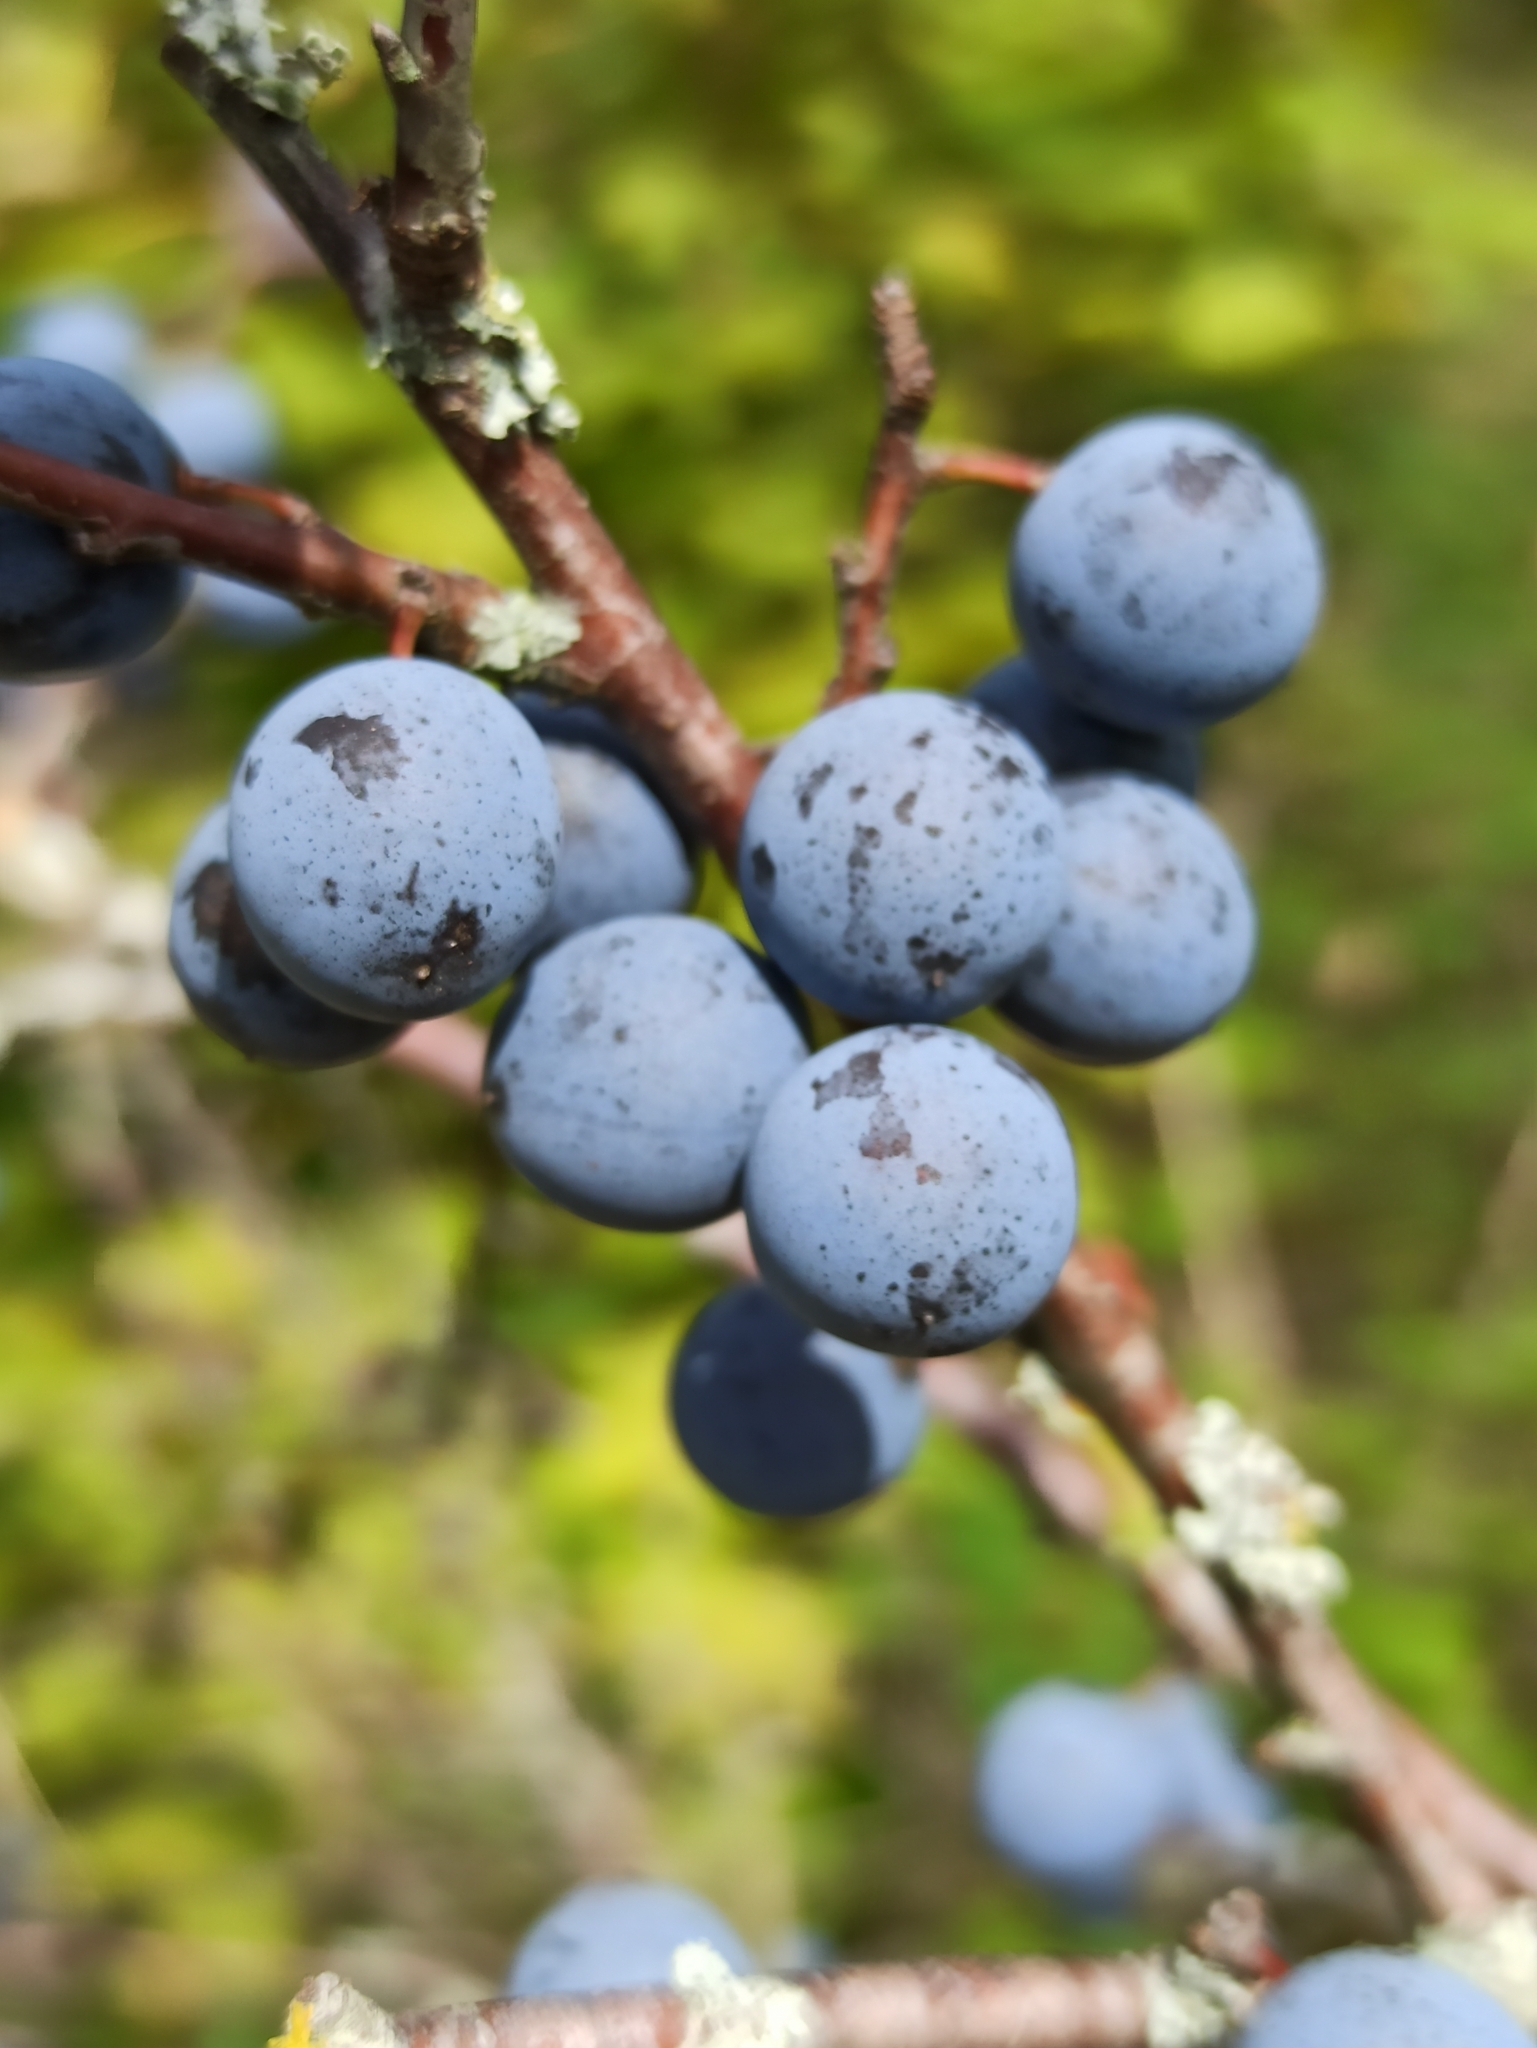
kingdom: Plantae
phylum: Tracheophyta
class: Magnoliopsida
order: Rosales
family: Rosaceae
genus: Prunus
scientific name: Prunus spinosa
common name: Blackthorn
